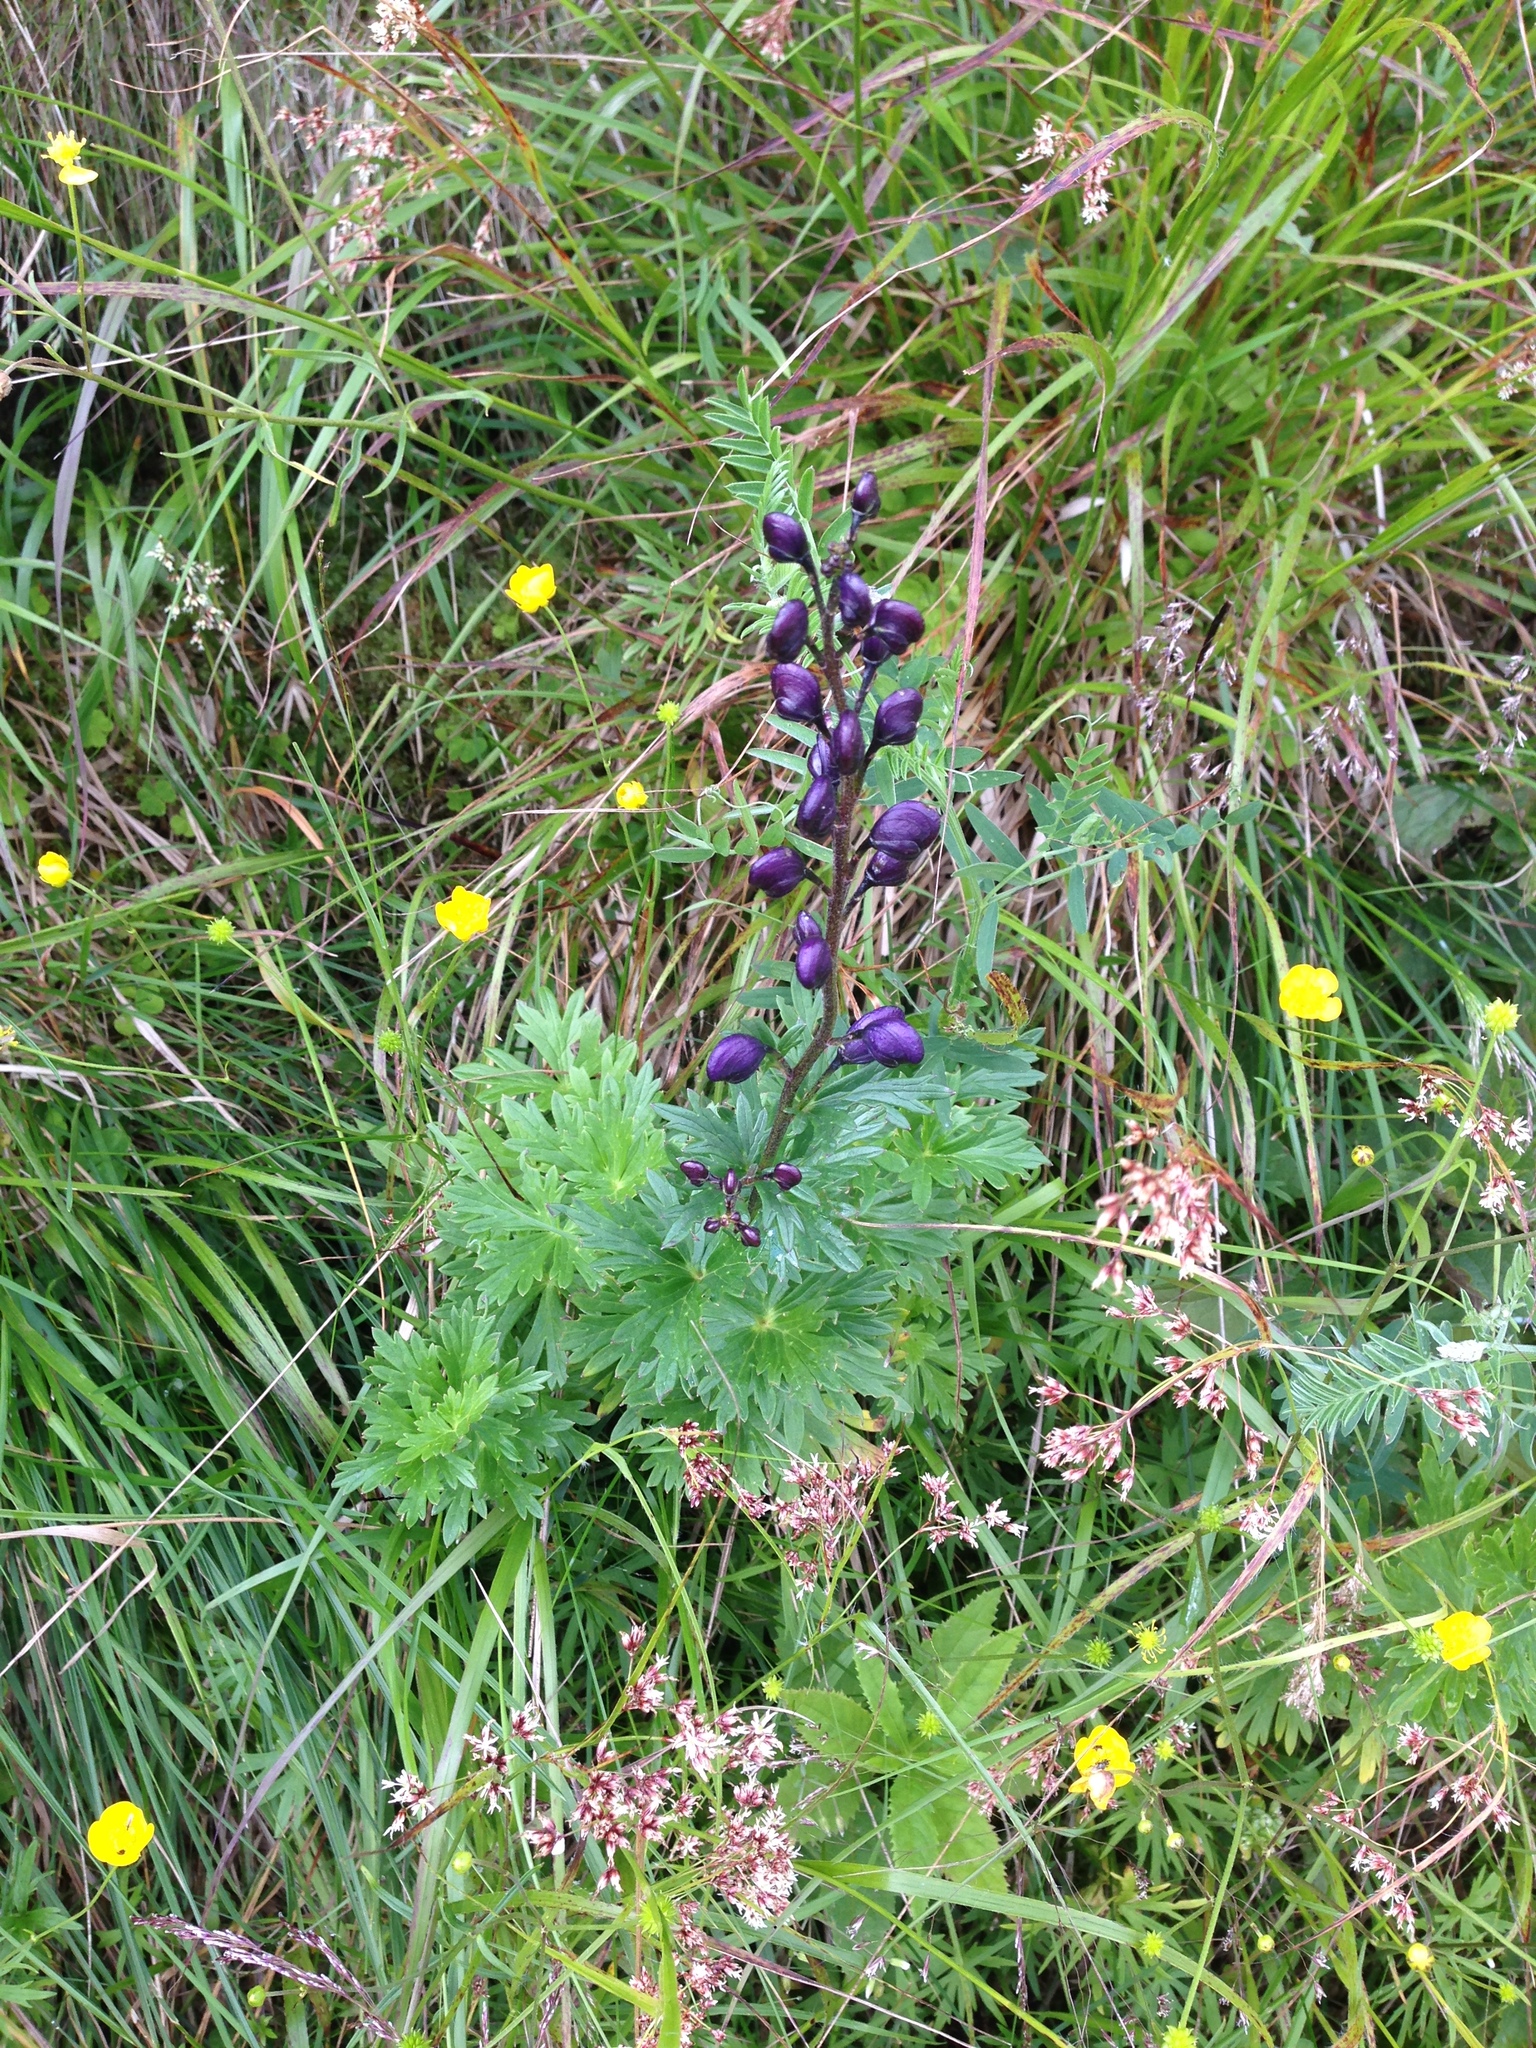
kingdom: Plantae
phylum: Tracheophyta
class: Magnoliopsida
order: Ranunculales
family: Ranunculaceae
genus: Aconitum
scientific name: Aconitum plicatum
